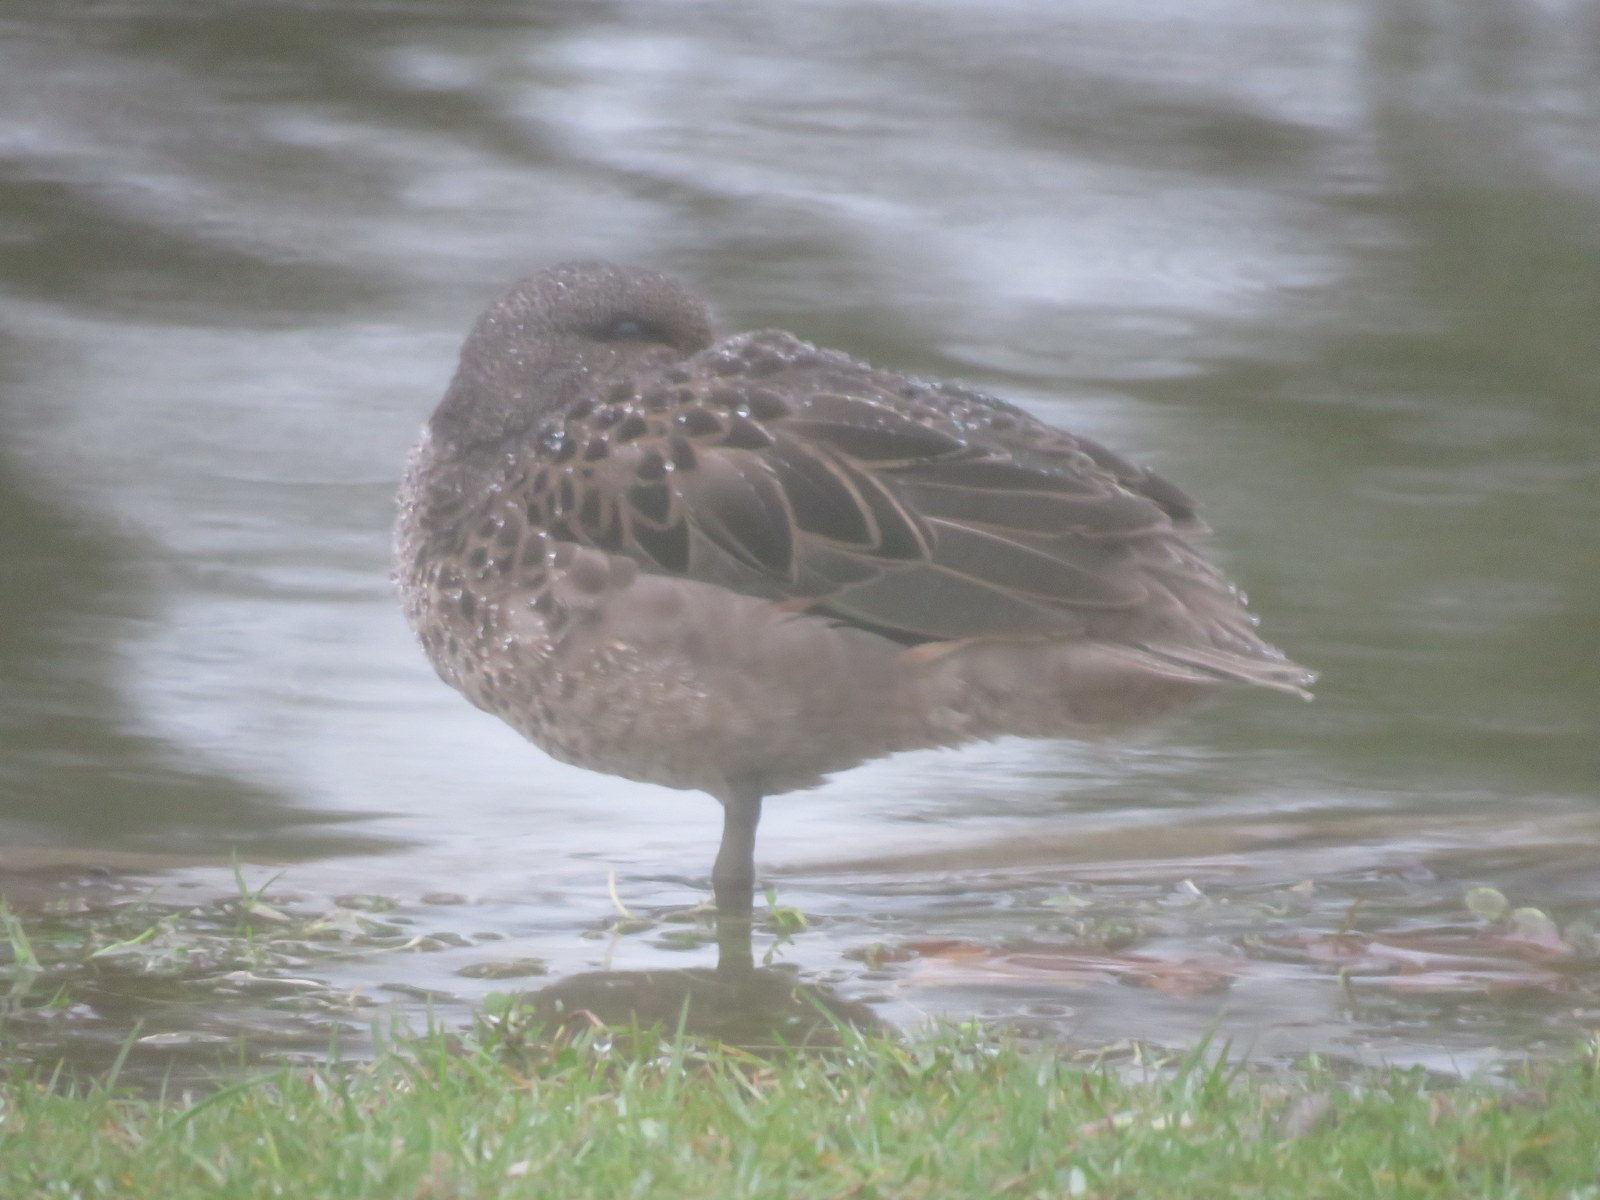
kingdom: Animalia
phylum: Chordata
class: Aves
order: Anseriformes
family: Anatidae
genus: Anas
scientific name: Anas flavirostris
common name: Yellow-billed teal
